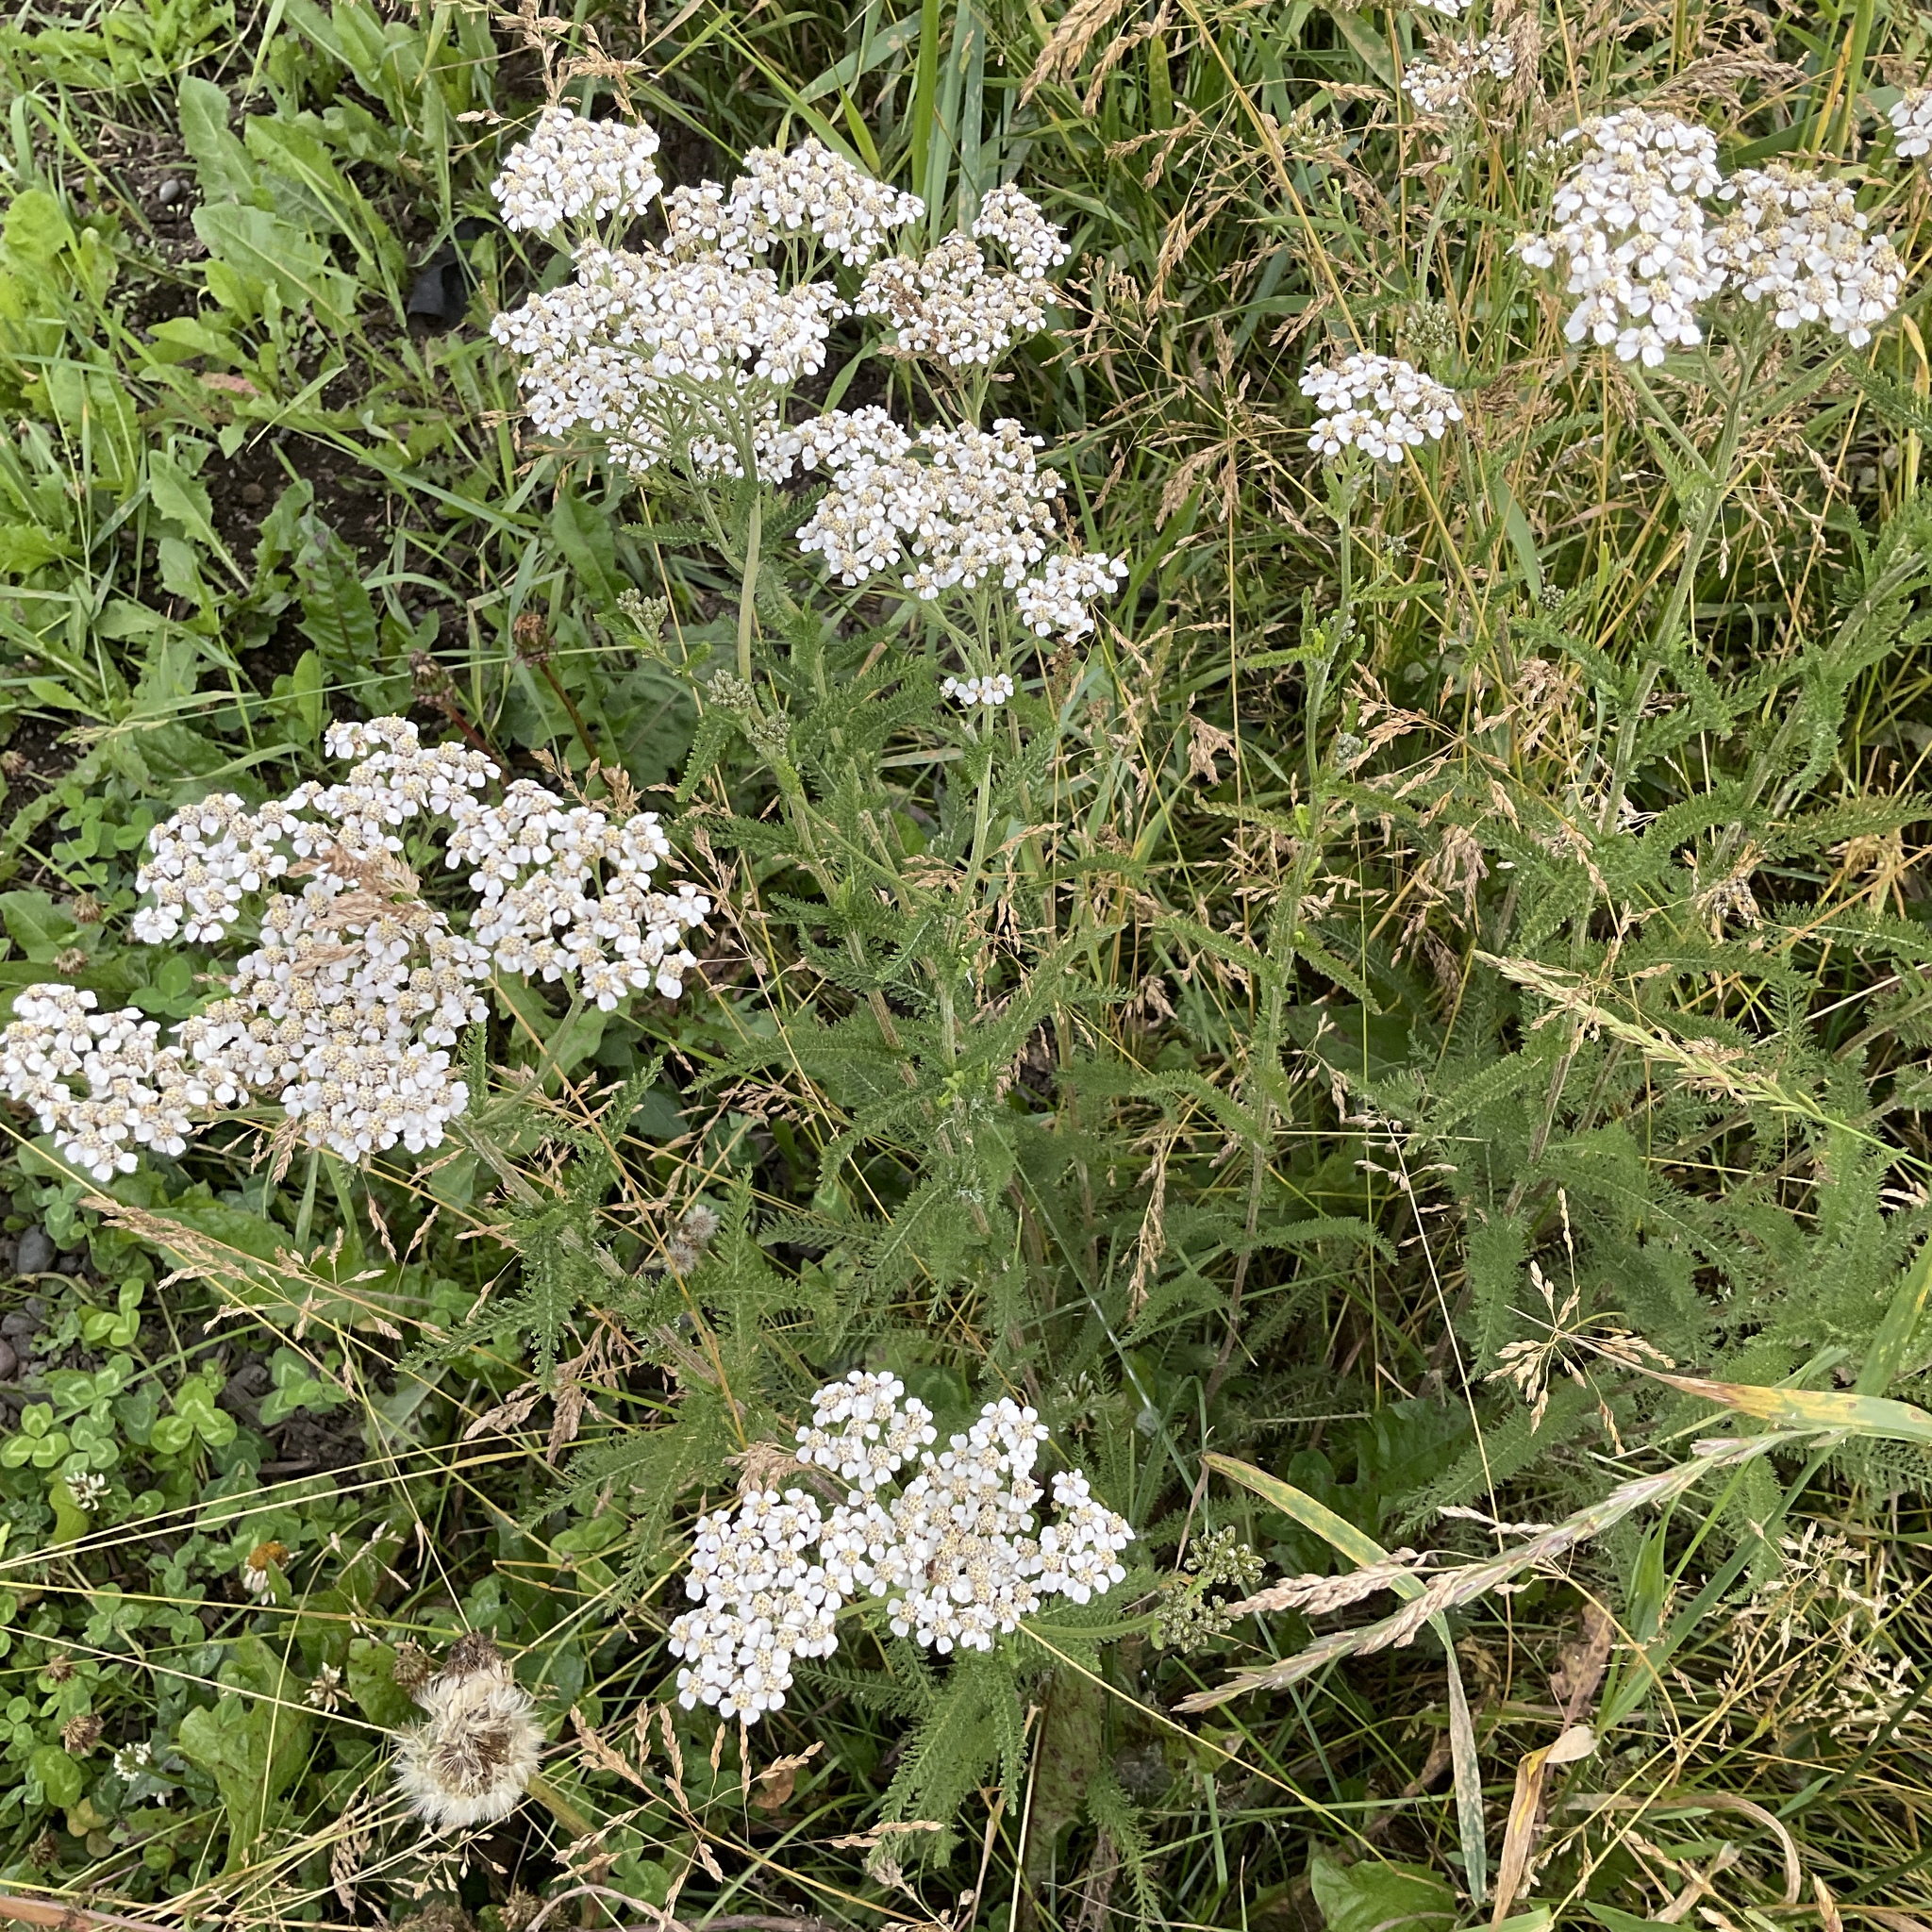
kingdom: Plantae
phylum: Tracheophyta
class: Magnoliopsida
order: Asterales
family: Asteraceae
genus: Achillea
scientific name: Achillea millefolium
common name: Yarrow
